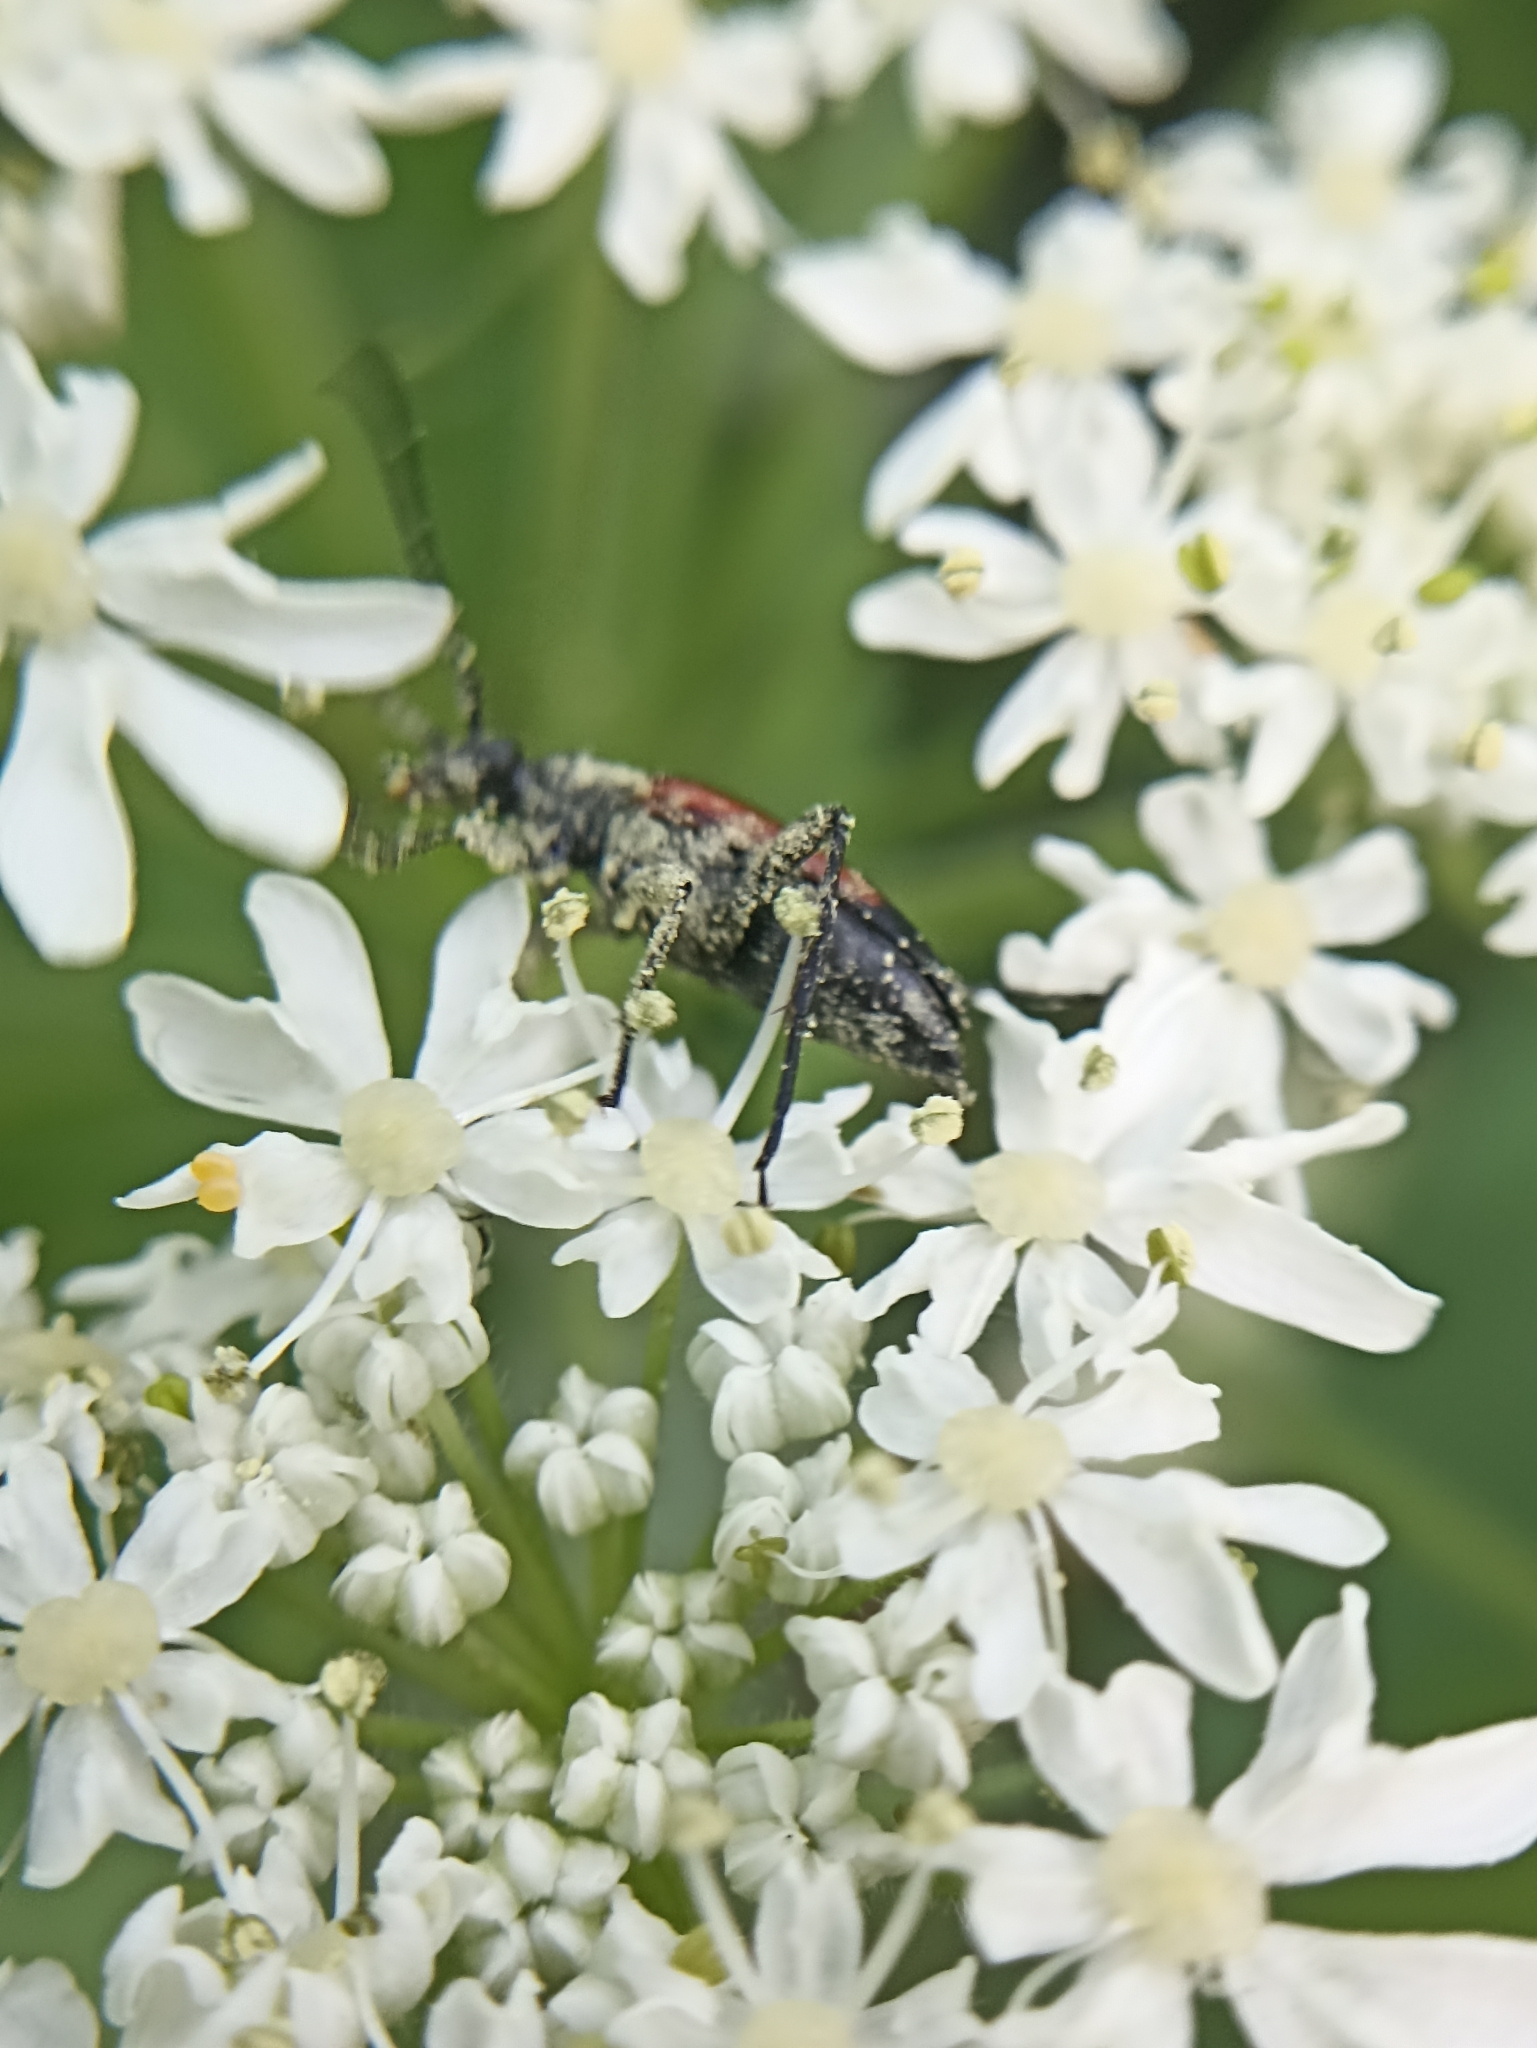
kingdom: Animalia
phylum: Arthropoda
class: Insecta
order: Coleoptera
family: Cerambycidae
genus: Stenurella
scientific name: Stenurella melanura
